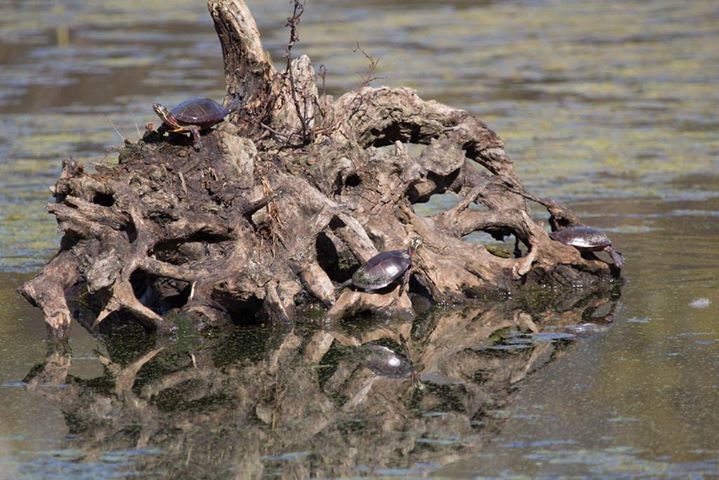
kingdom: Animalia
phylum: Chordata
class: Testudines
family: Emydidae
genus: Chrysemys
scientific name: Chrysemys picta
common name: Painted turtle
